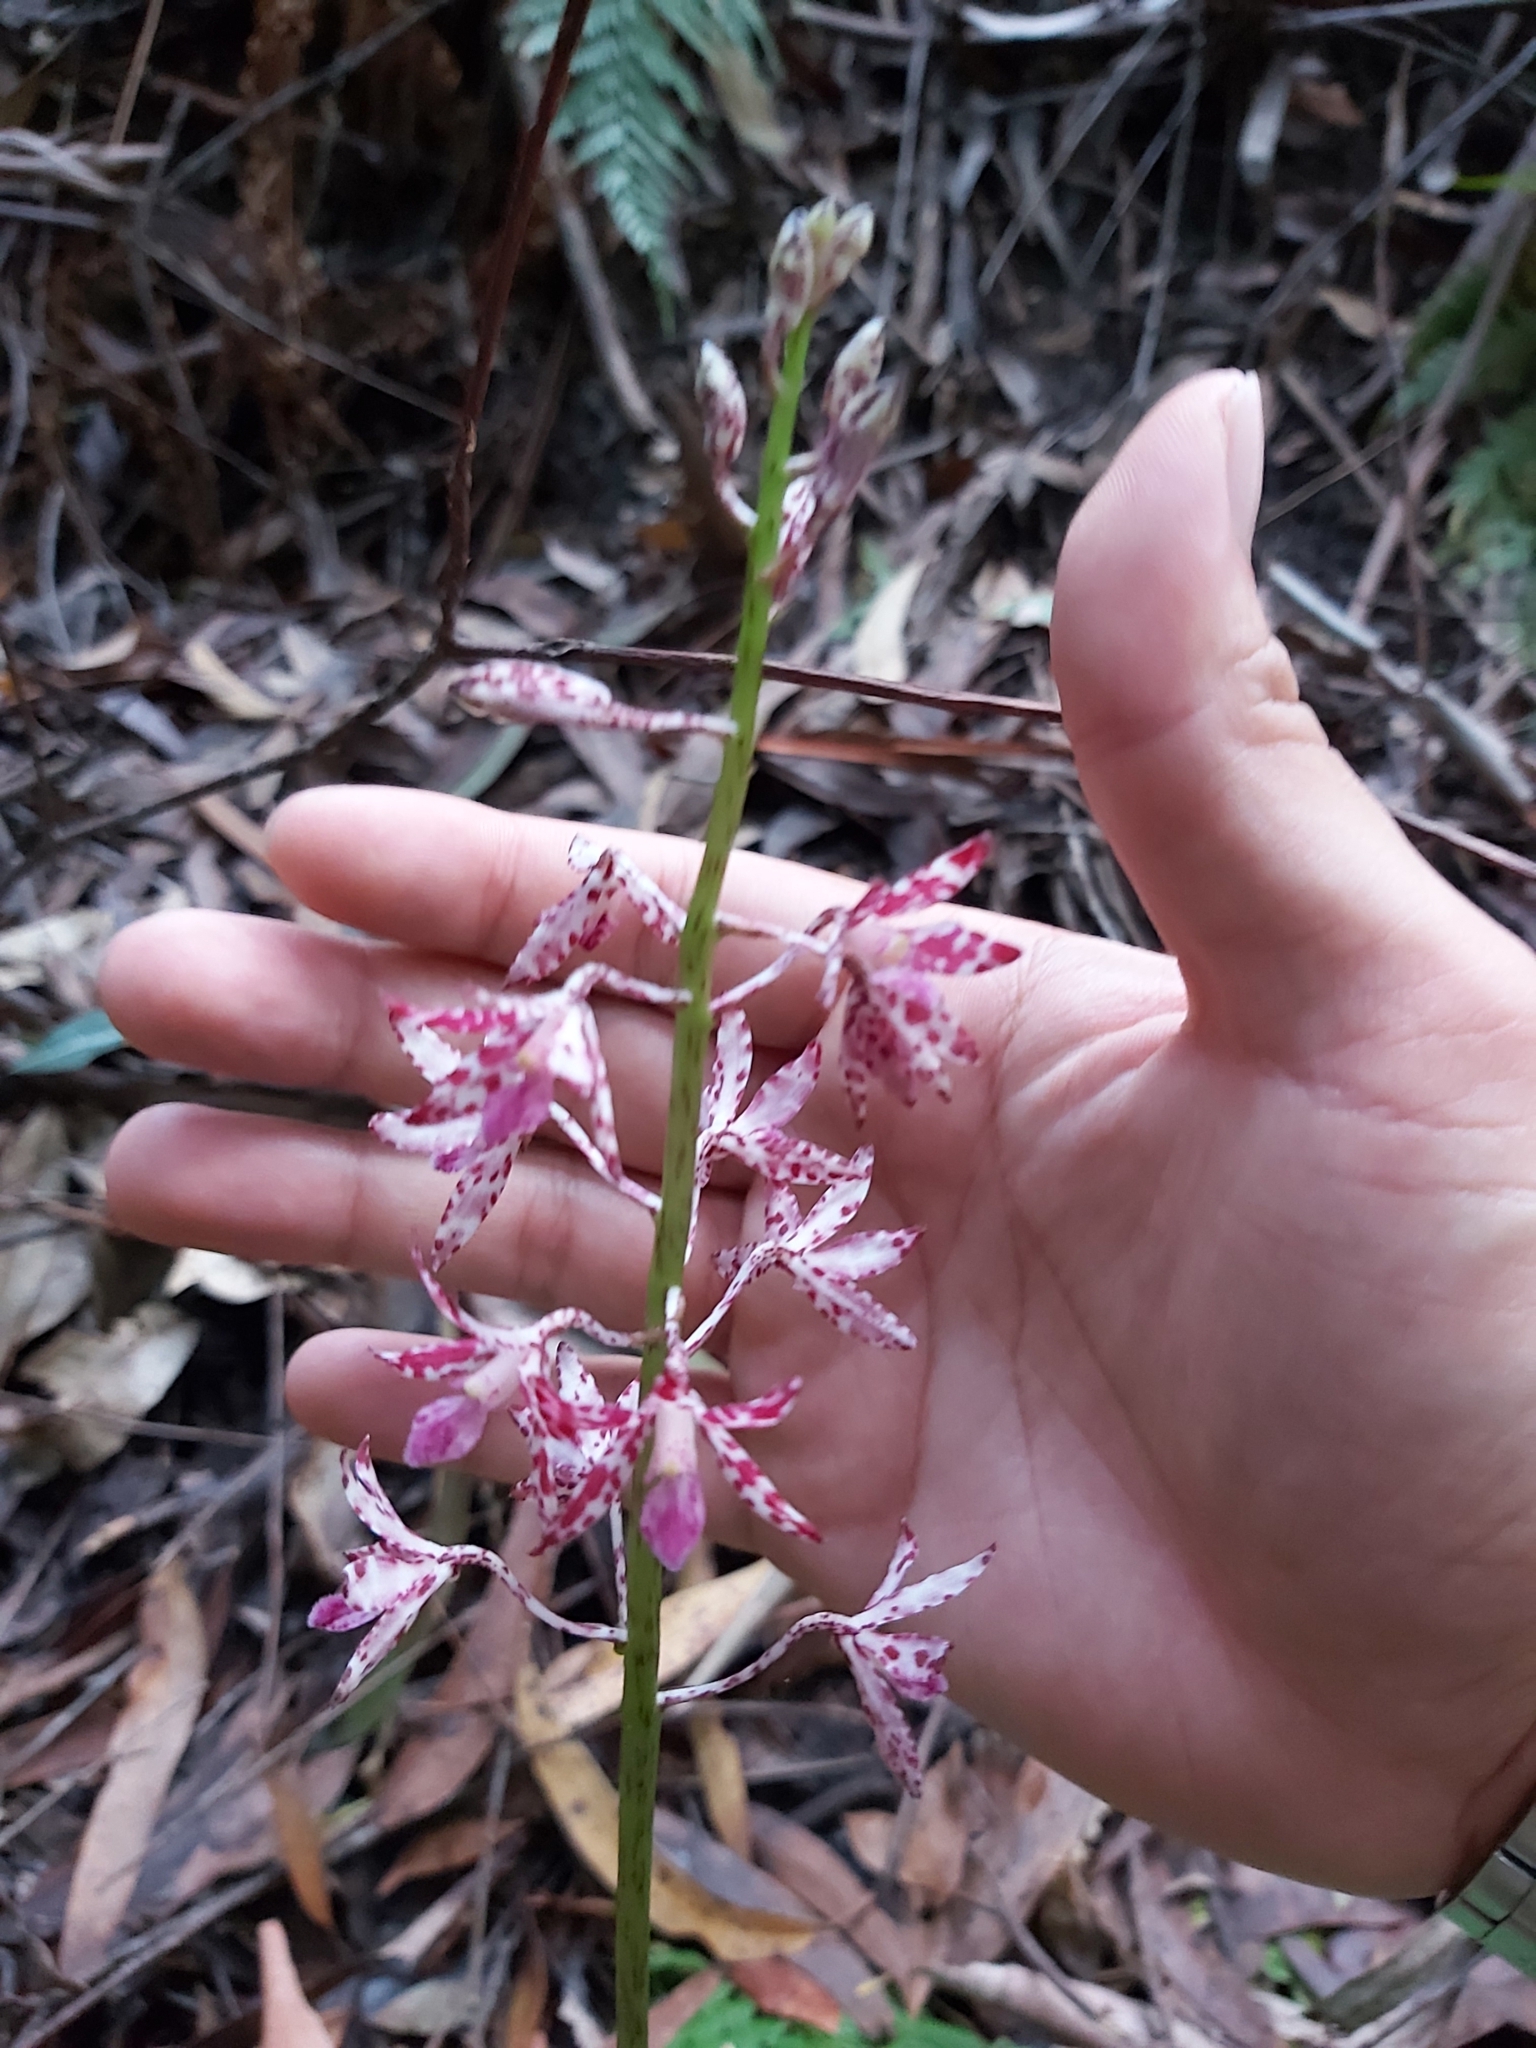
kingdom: Plantae
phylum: Tracheophyta
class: Liliopsida
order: Asparagales
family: Orchidaceae
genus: Dipodium
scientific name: Dipodium variegatum
